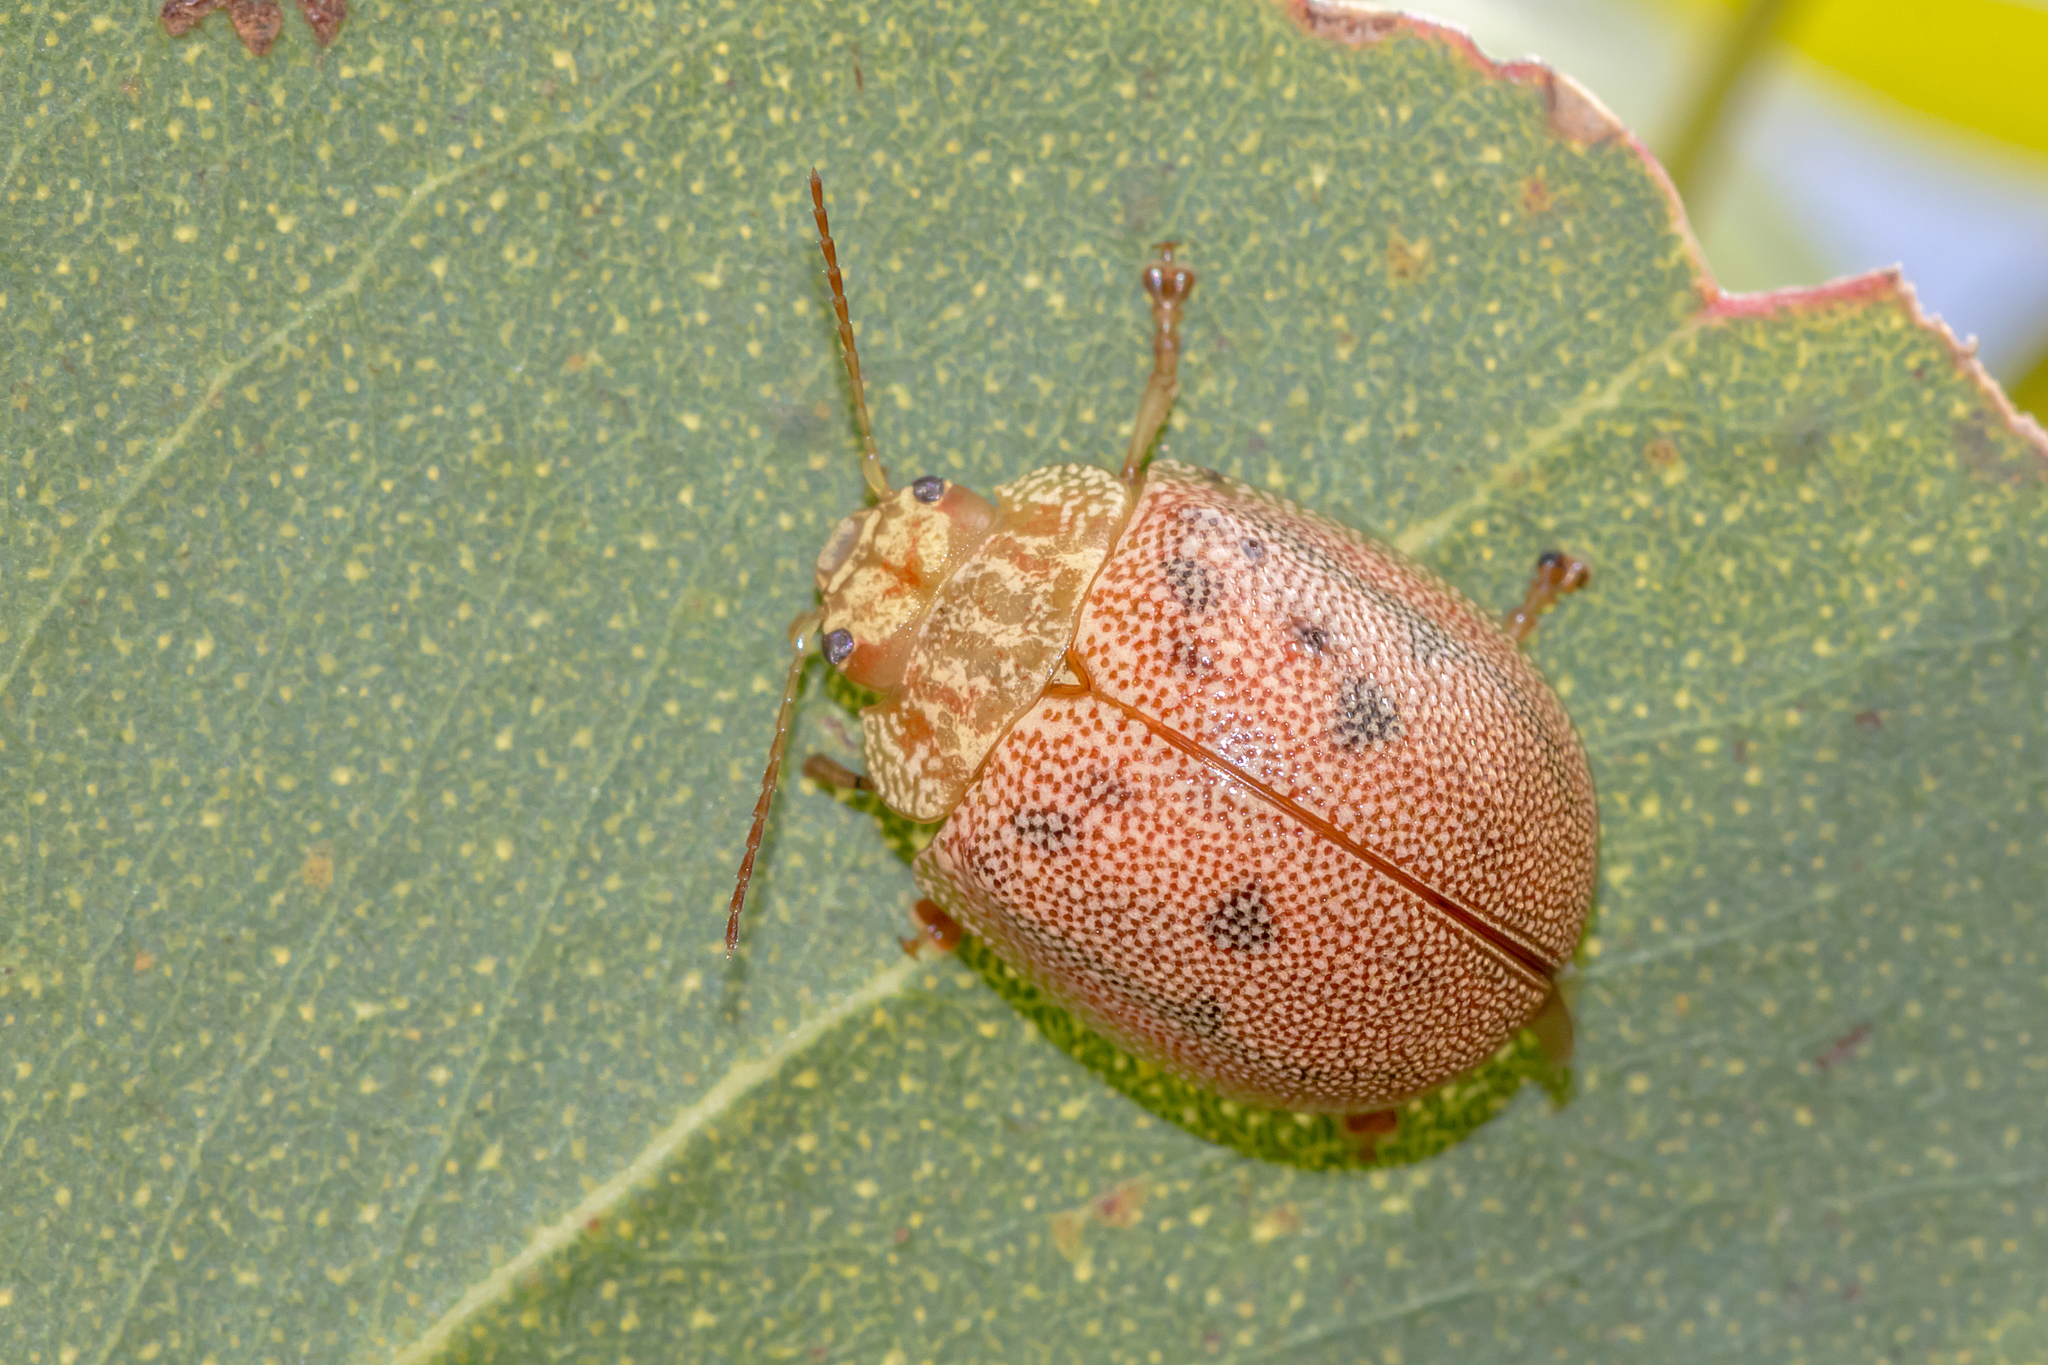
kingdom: Animalia
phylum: Arthropoda
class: Insecta
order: Coleoptera
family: Chrysomelidae
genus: Paropsis
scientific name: Paropsis
